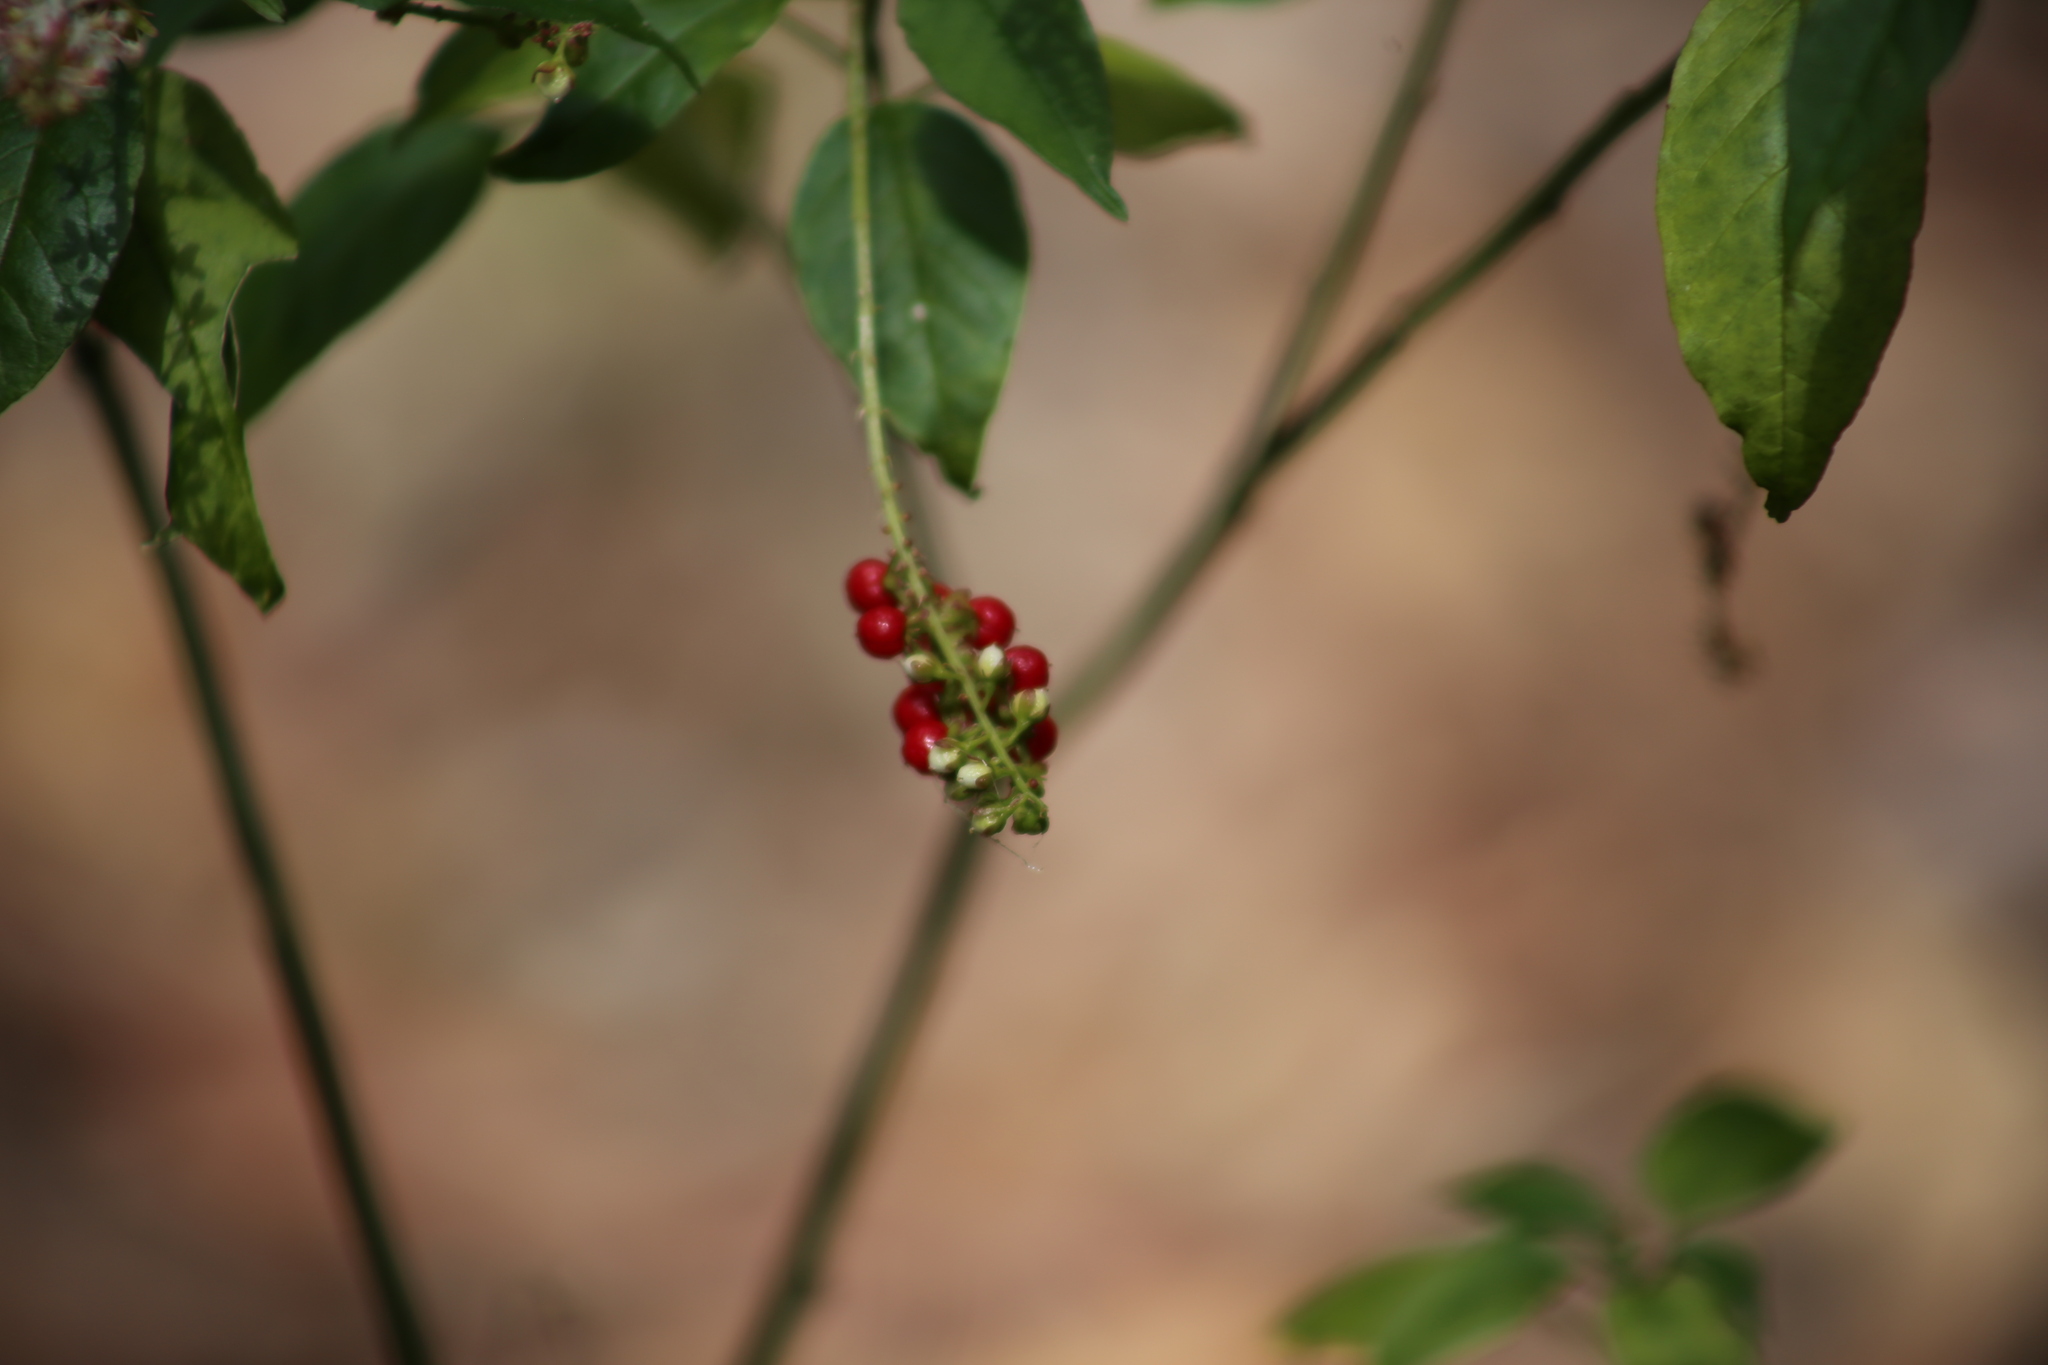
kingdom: Plantae
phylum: Tracheophyta
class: Magnoliopsida
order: Caryophyllales
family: Phytolaccaceae
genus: Rivina
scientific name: Rivina humilis
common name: Rougeplant
